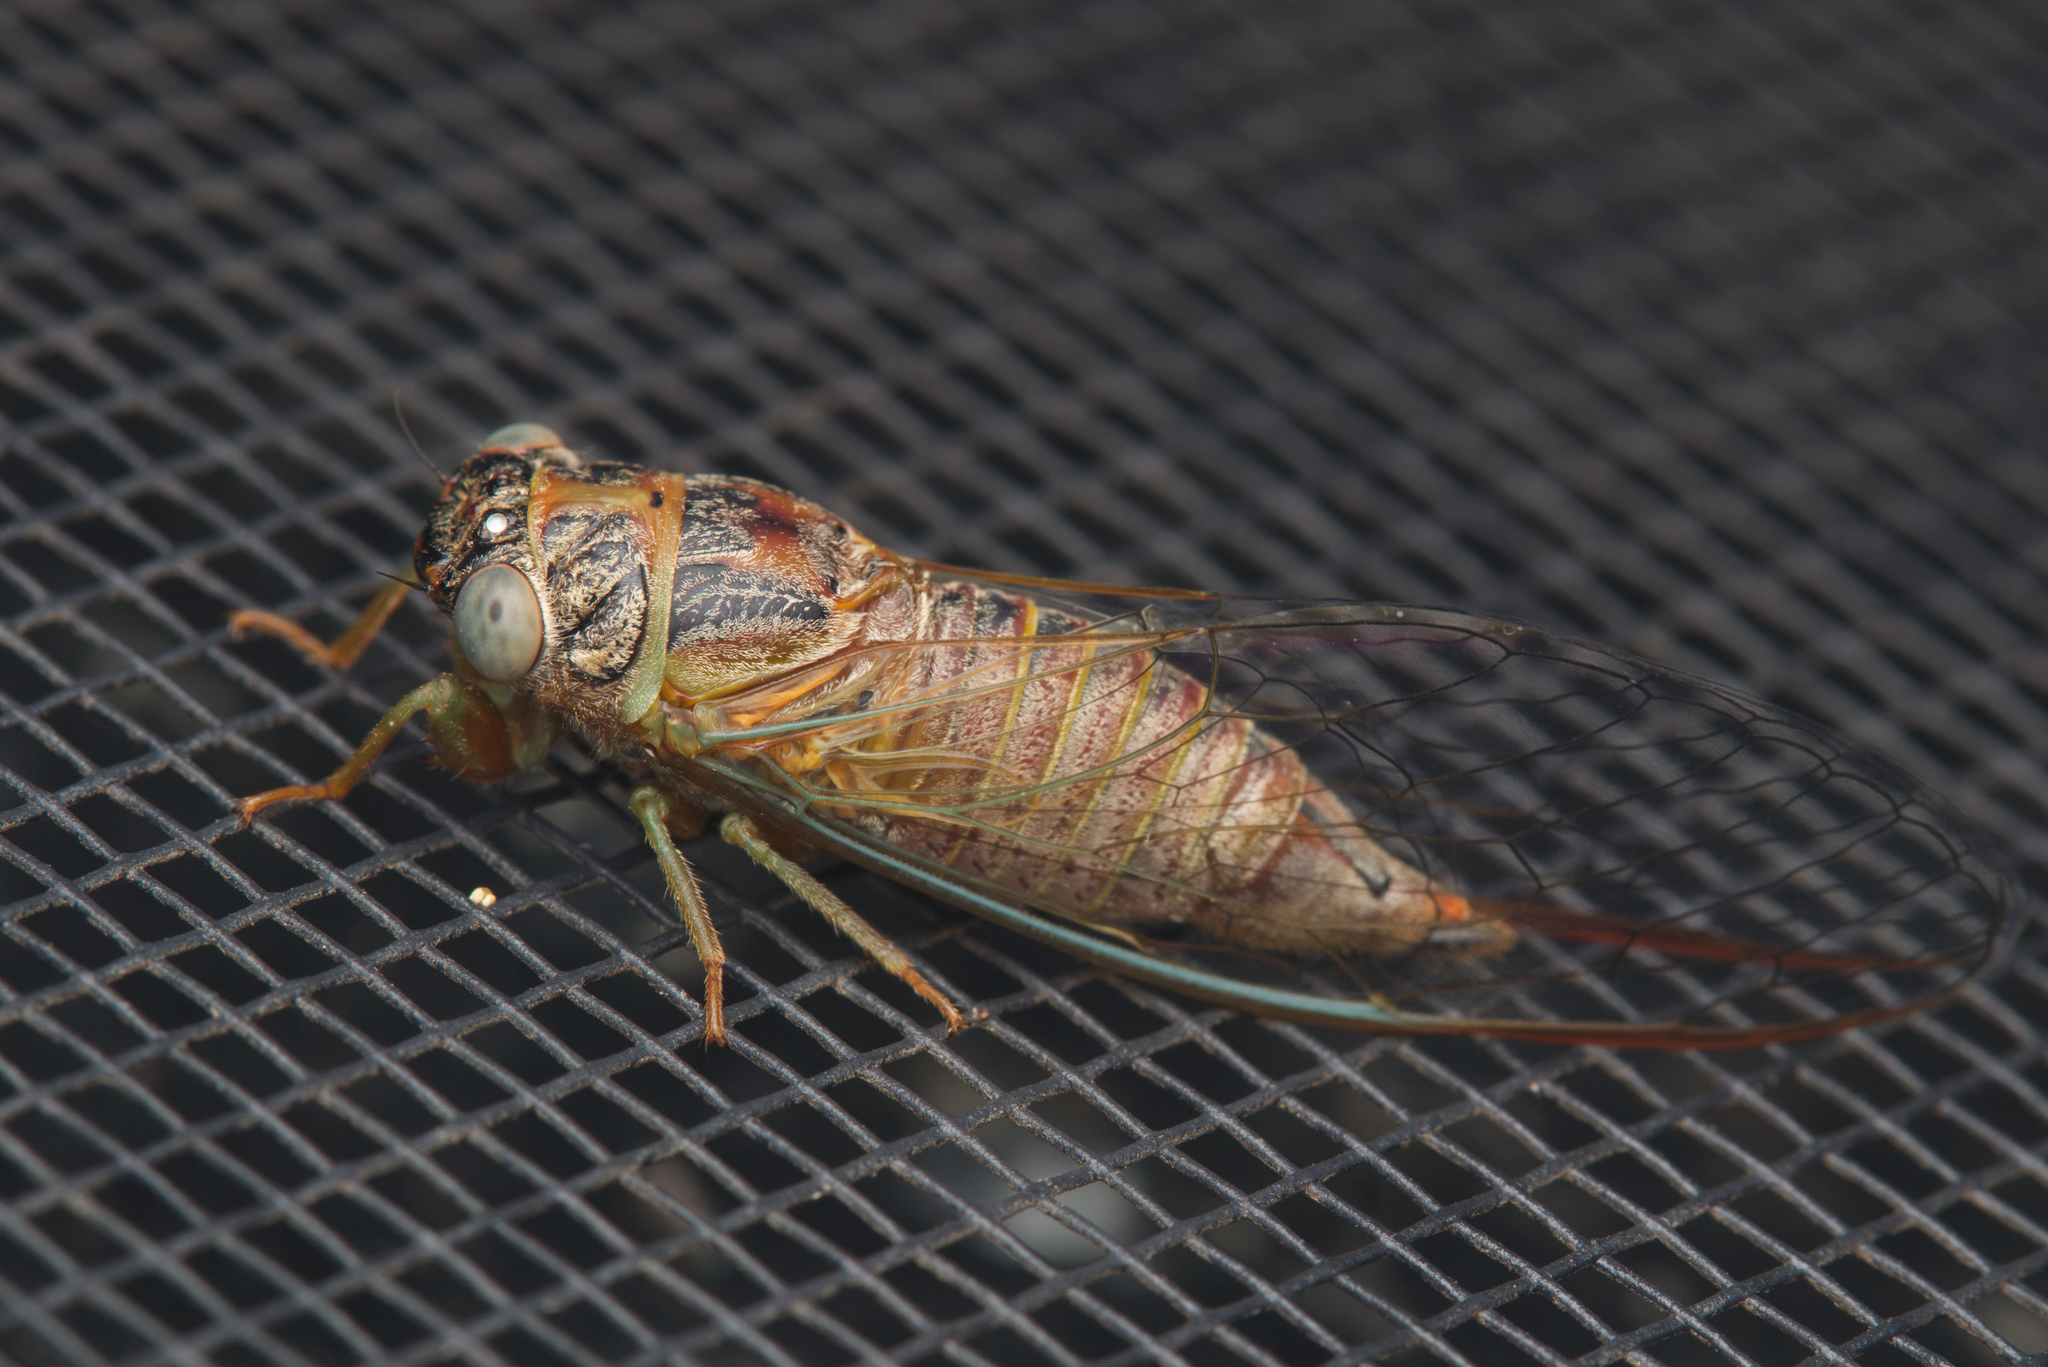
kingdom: Animalia
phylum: Arthropoda
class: Insecta
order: Hemiptera
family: Cicadidae
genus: Palapsalta
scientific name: Palapsalta eyrei
